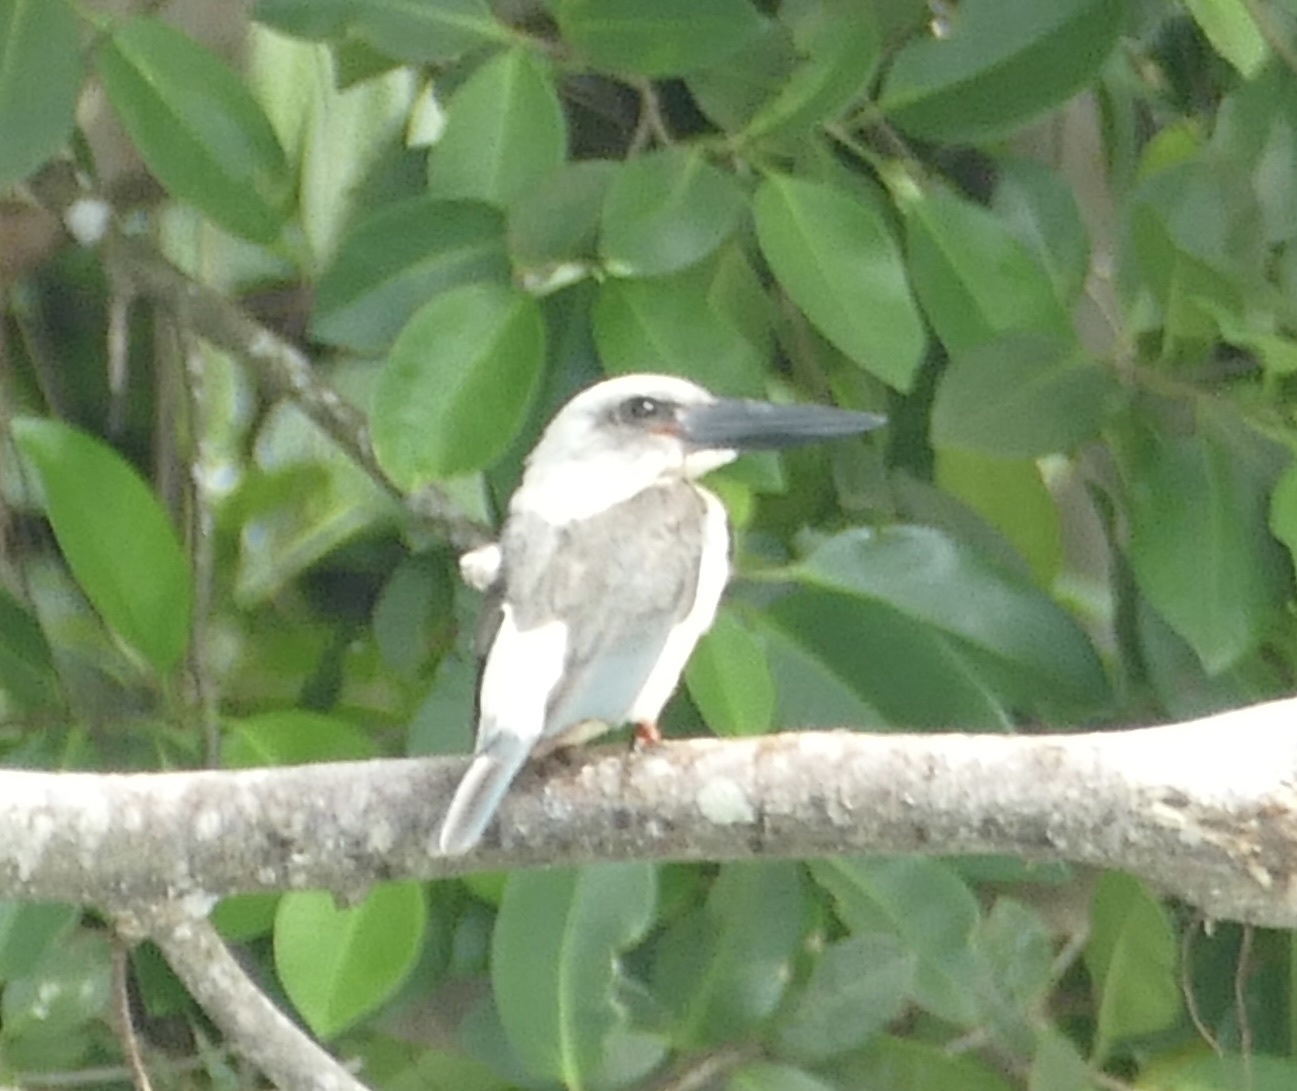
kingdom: Animalia
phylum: Chordata
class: Aves
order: Coraciiformes
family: Alcedinidae
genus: Pelargopsis
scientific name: Pelargopsis melanorhyncha
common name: Great-billed kingfisher
